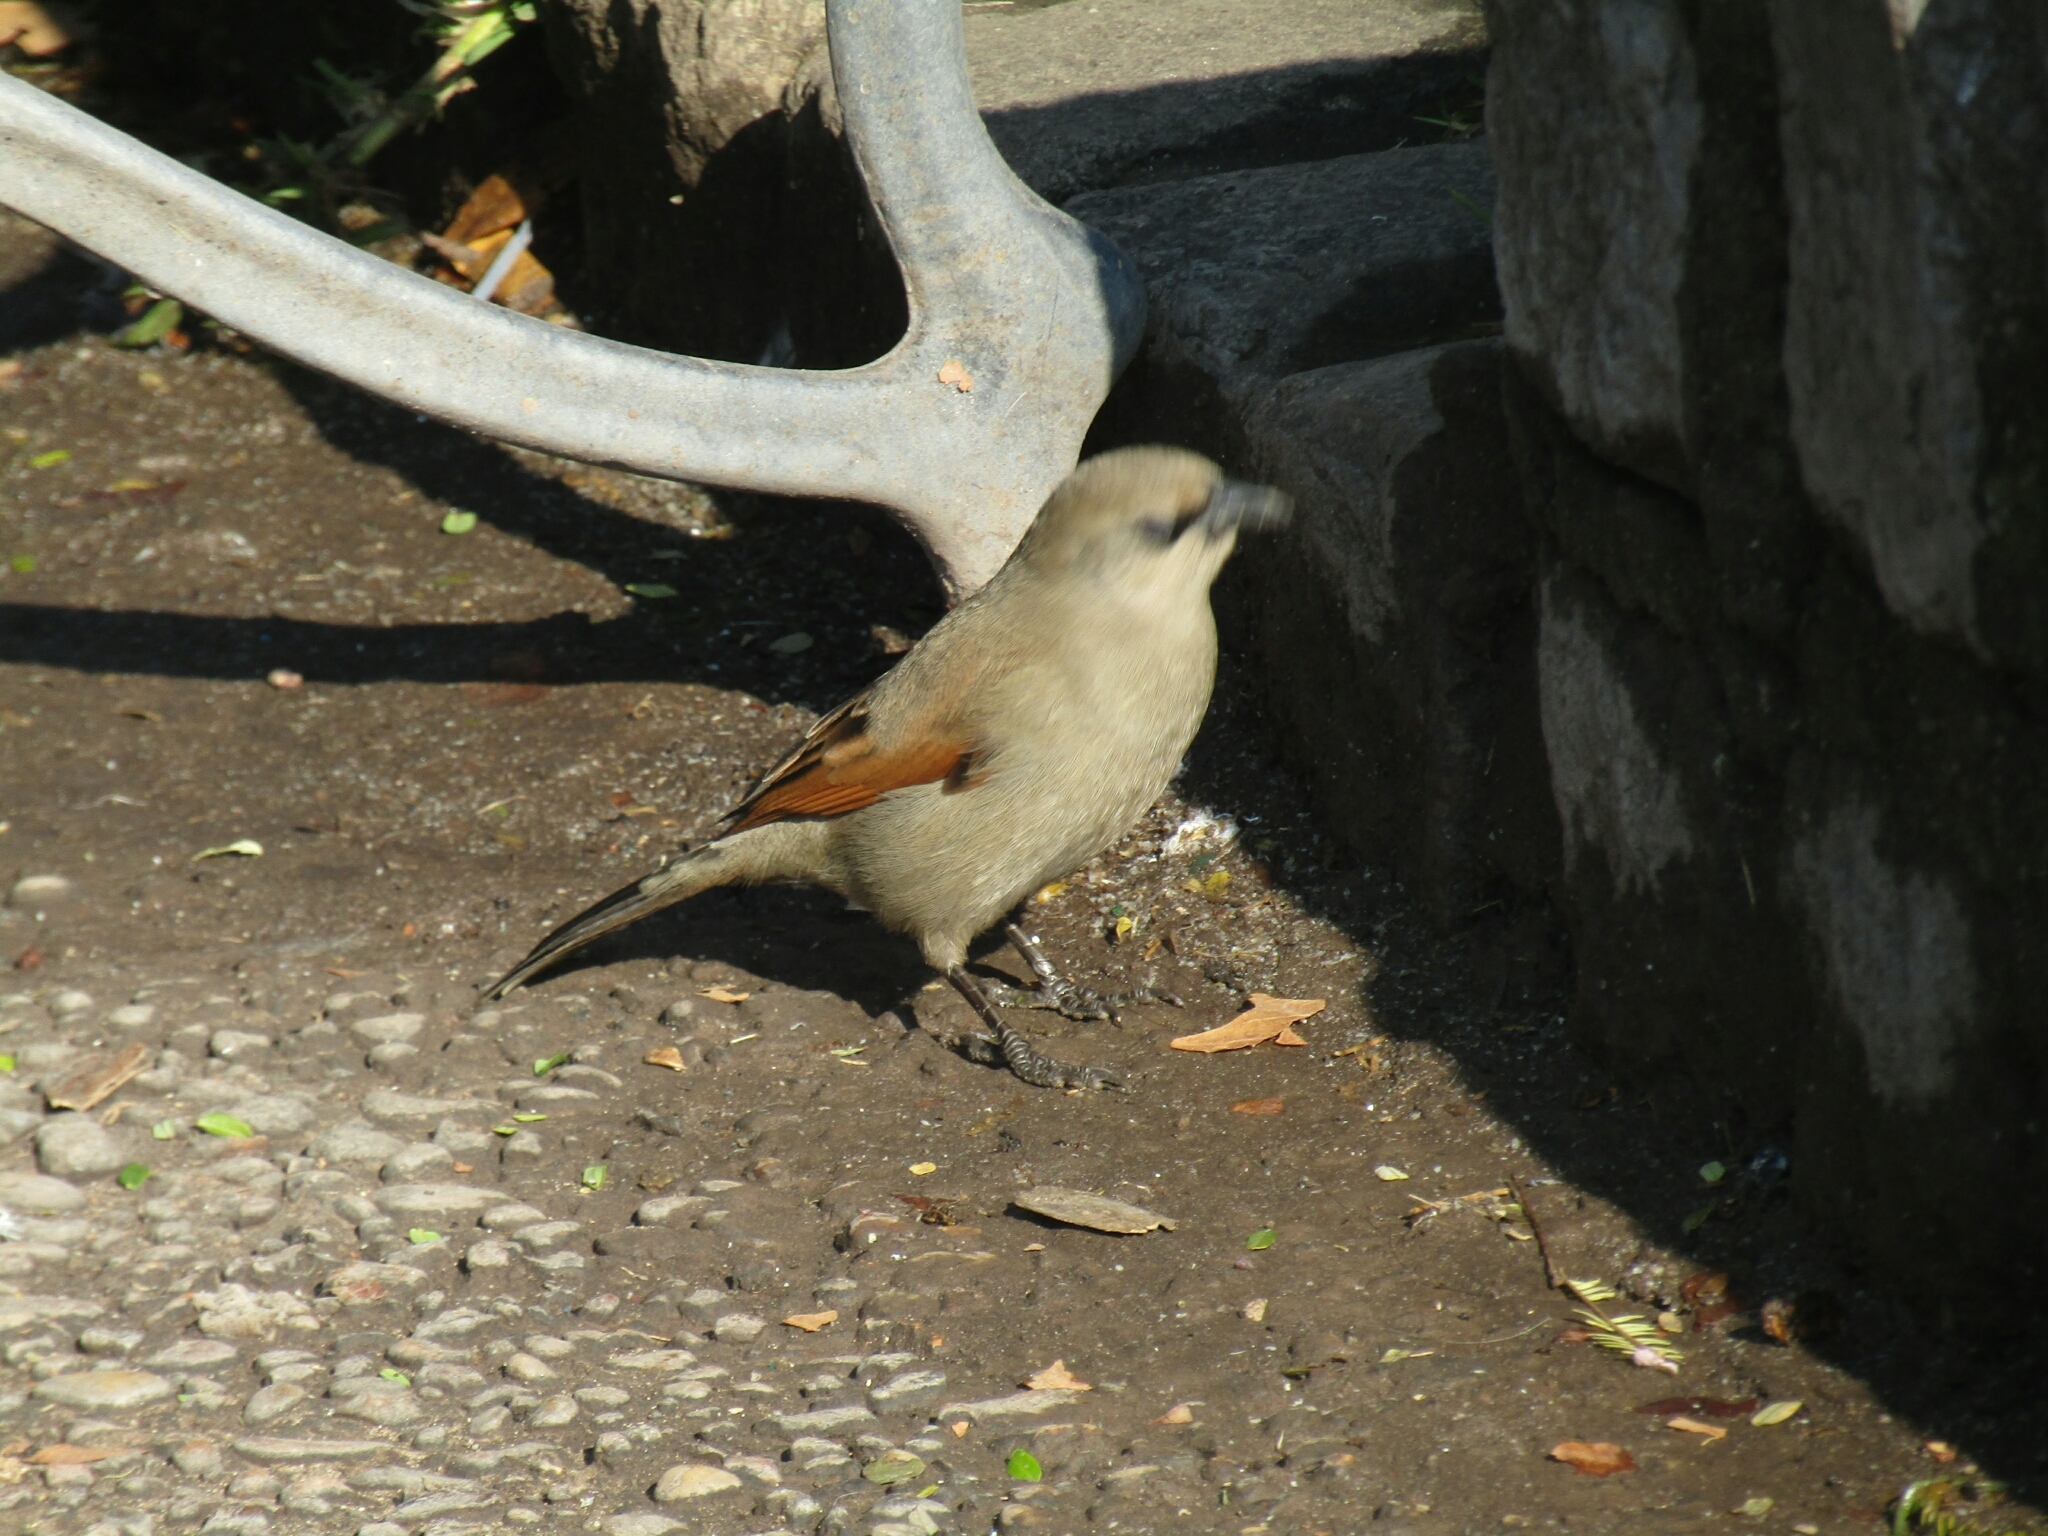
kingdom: Animalia
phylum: Chordata
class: Aves
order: Passeriformes
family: Icteridae
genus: Agelaioides
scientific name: Agelaioides badius
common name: Baywing
